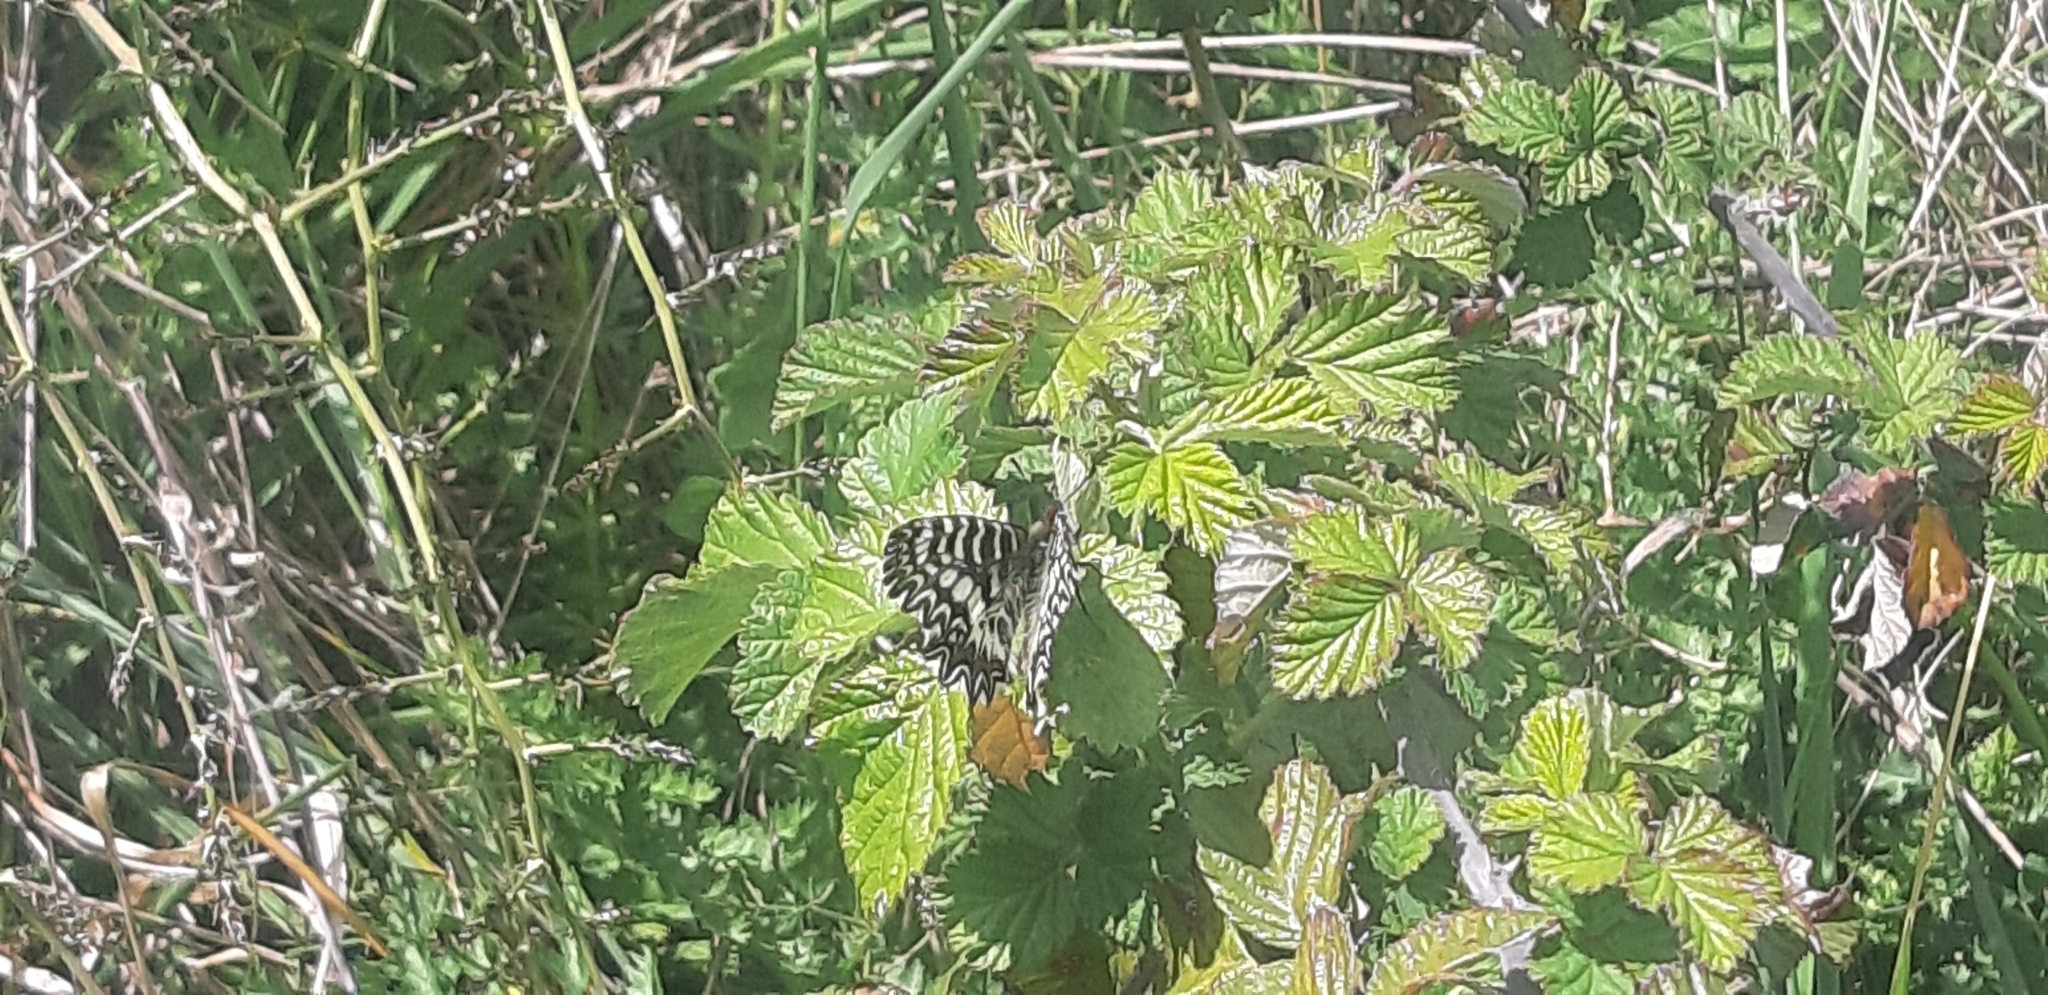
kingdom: Animalia
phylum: Arthropoda
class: Insecta
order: Lepidoptera
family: Papilionidae
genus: Zerynthia
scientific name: Zerynthia cassandra
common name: Italian festoon
